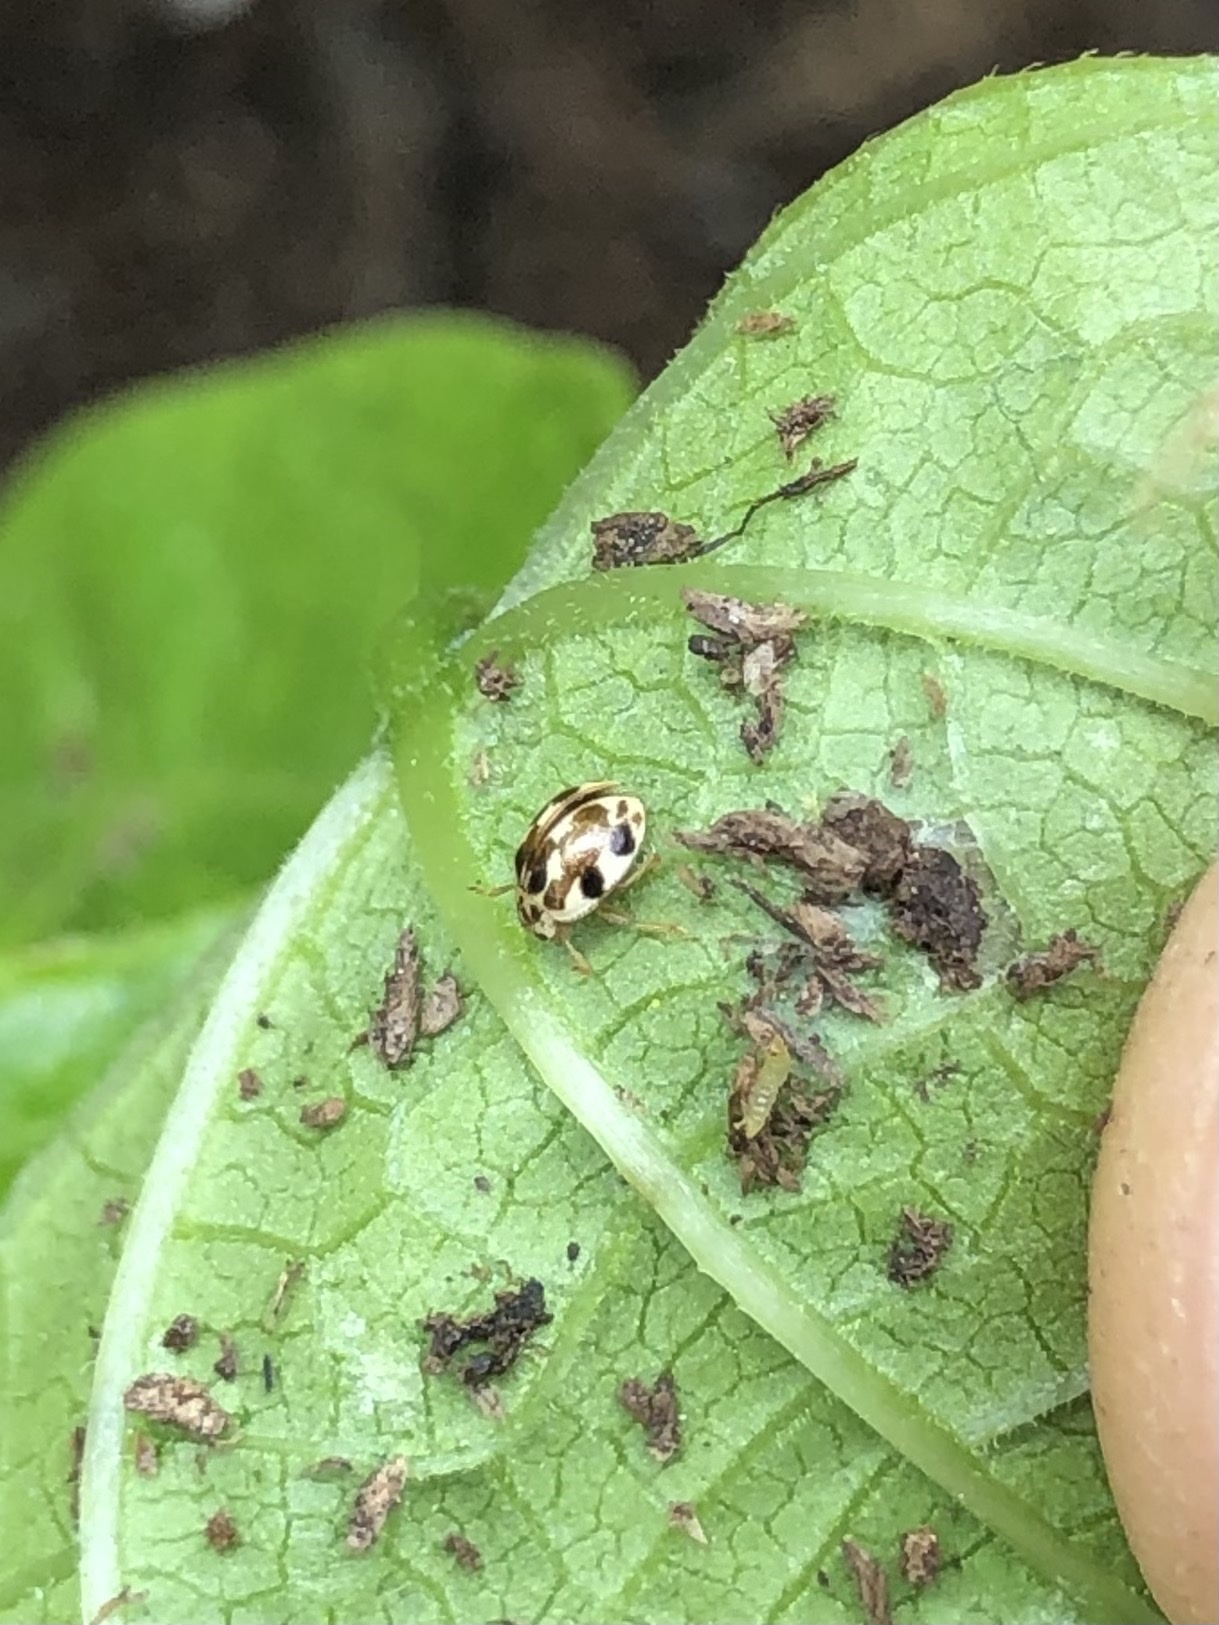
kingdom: Animalia
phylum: Arthropoda
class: Insecta
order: Coleoptera
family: Coccinellidae
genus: Psyllobora
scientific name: Psyllobora vigintimaculata
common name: Ladybird beetle
